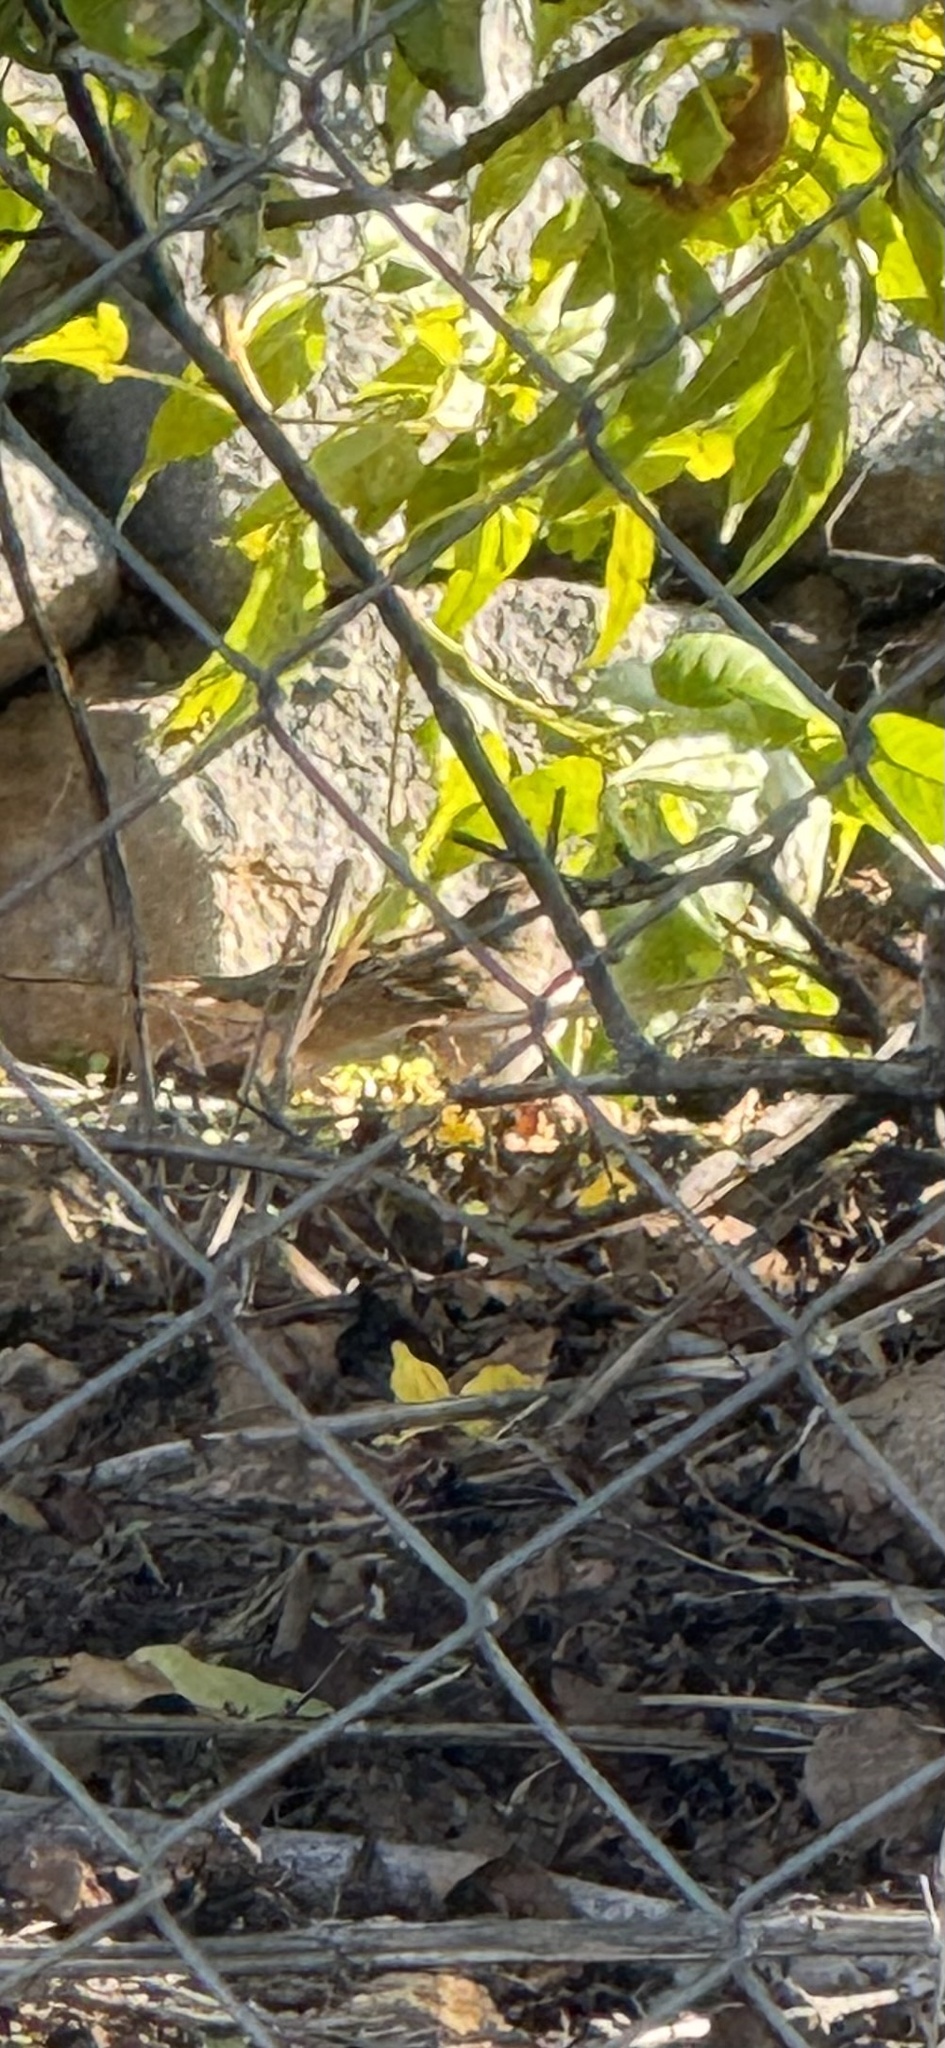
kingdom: Animalia
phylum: Chordata
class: Aves
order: Passeriformes
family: Passerellidae
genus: Zonotrichia
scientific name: Zonotrichia leucophrys
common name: White-crowned sparrow
